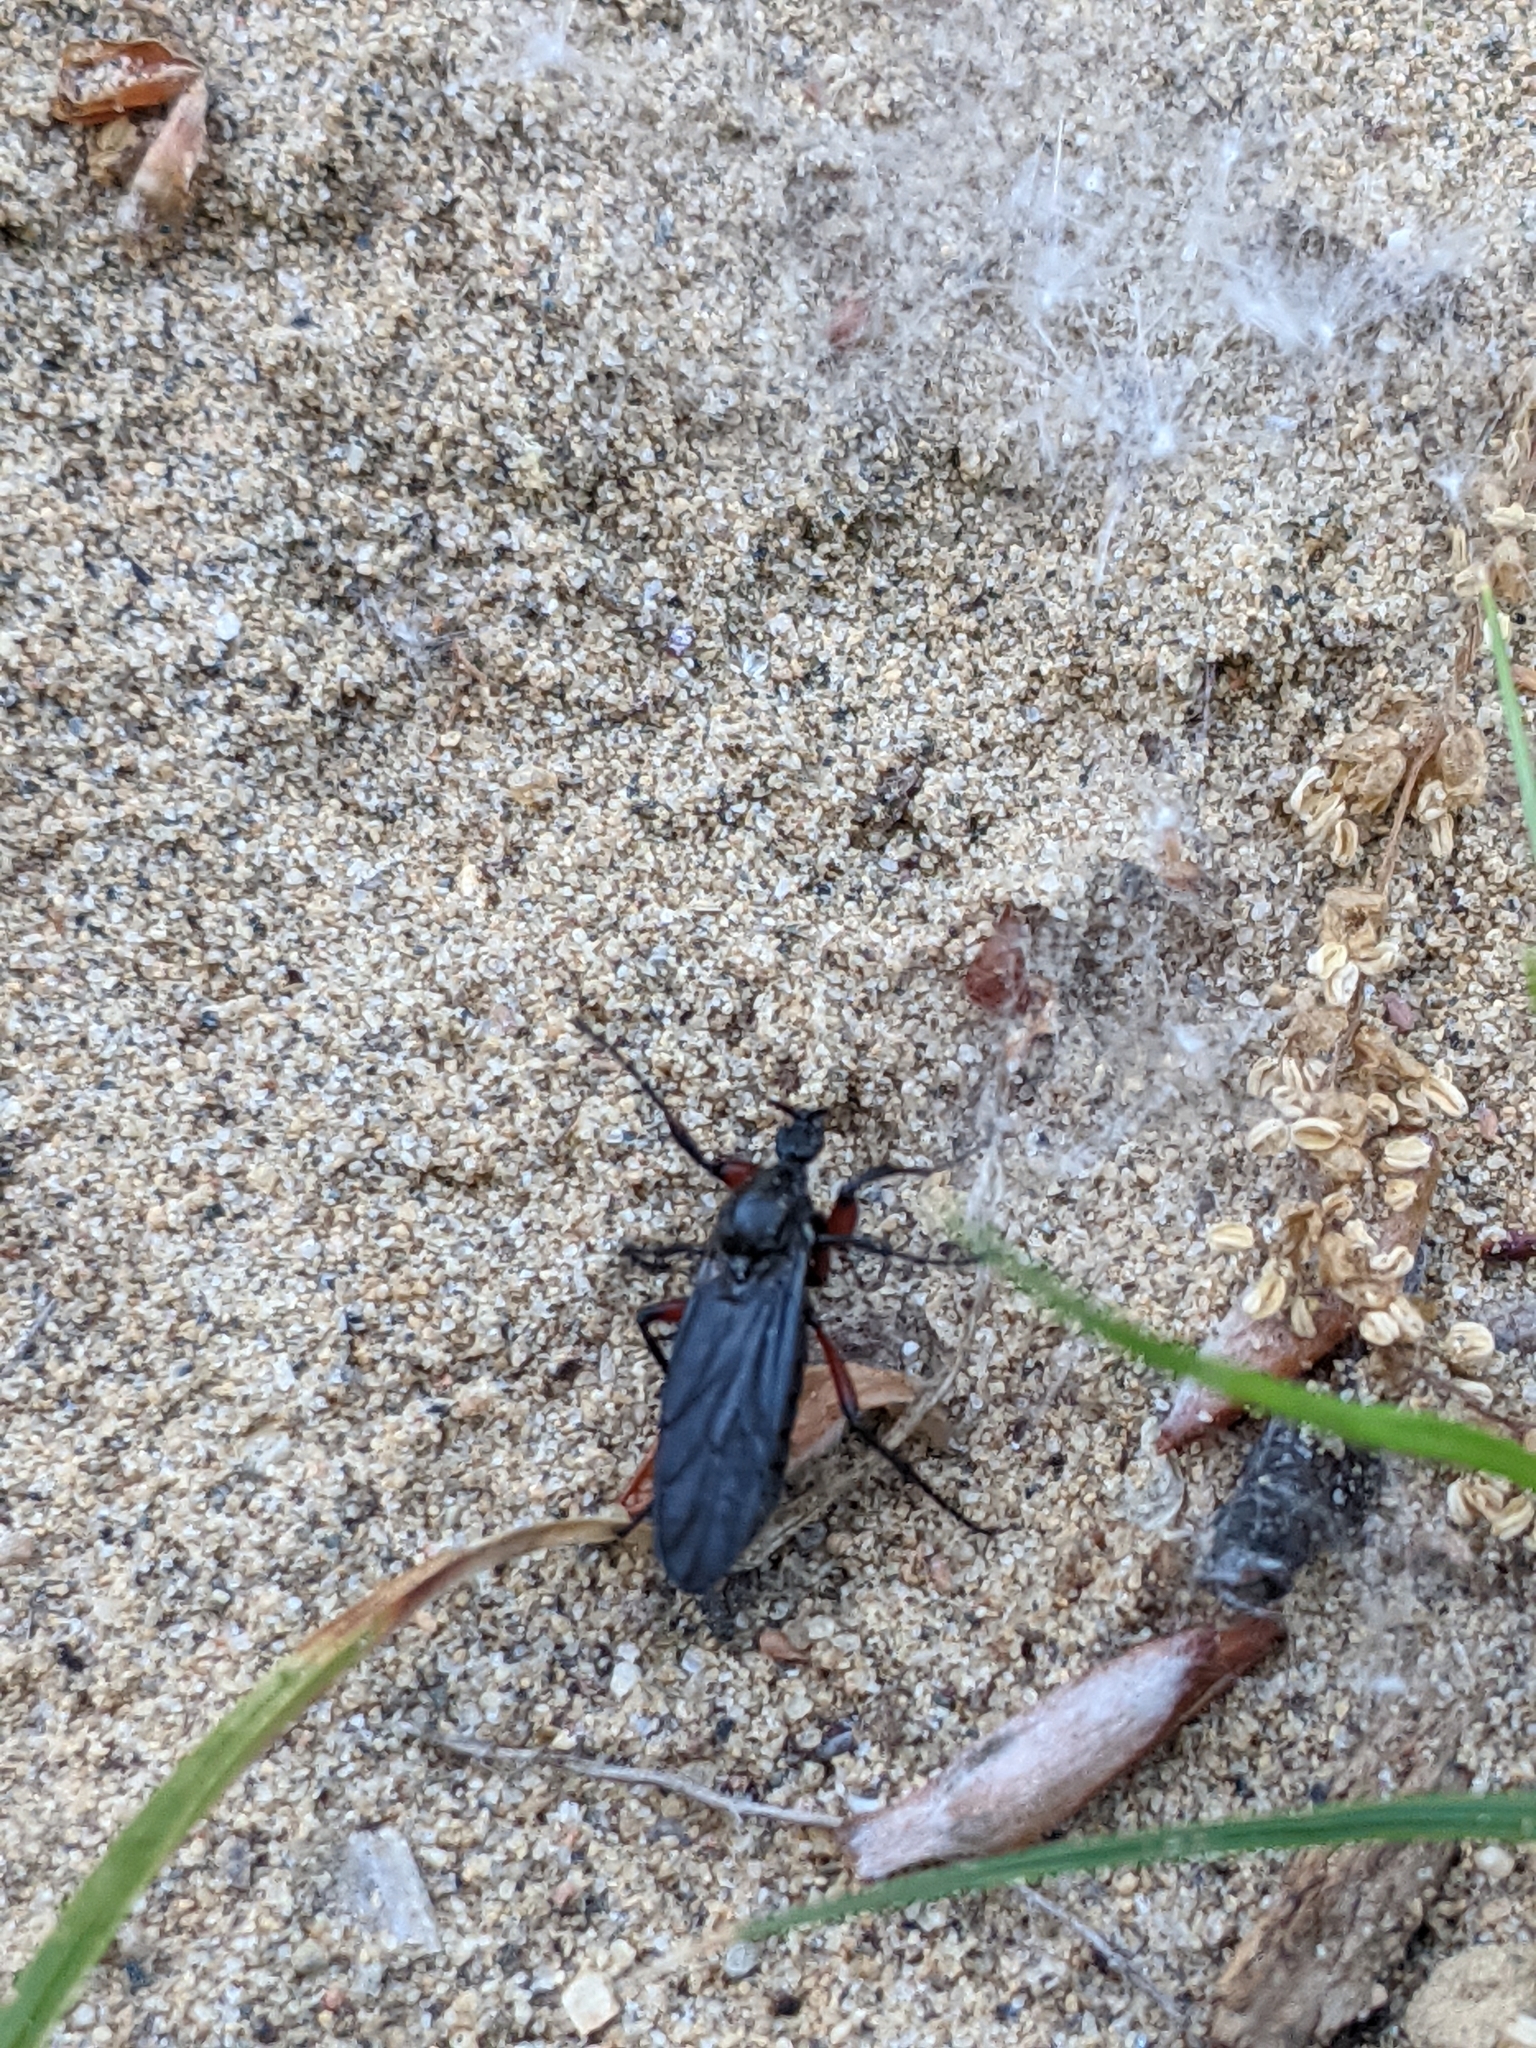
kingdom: Animalia
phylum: Arthropoda
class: Insecta
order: Diptera
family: Bibionidae
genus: Bibio
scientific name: Bibio femoratus
